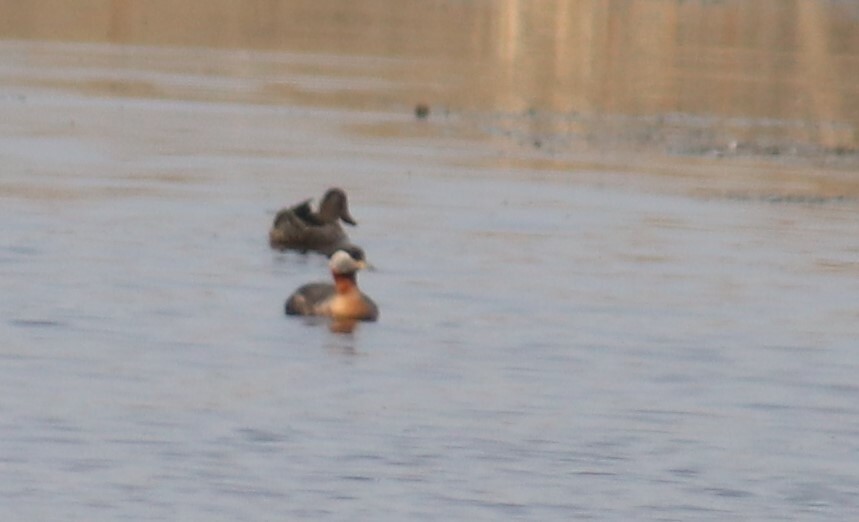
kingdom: Animalia
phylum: Chordata
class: Aves
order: Podicipediformes
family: Podicipedidae
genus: Podiceps
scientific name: Podiceps grisegena
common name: Red-necked grebe
